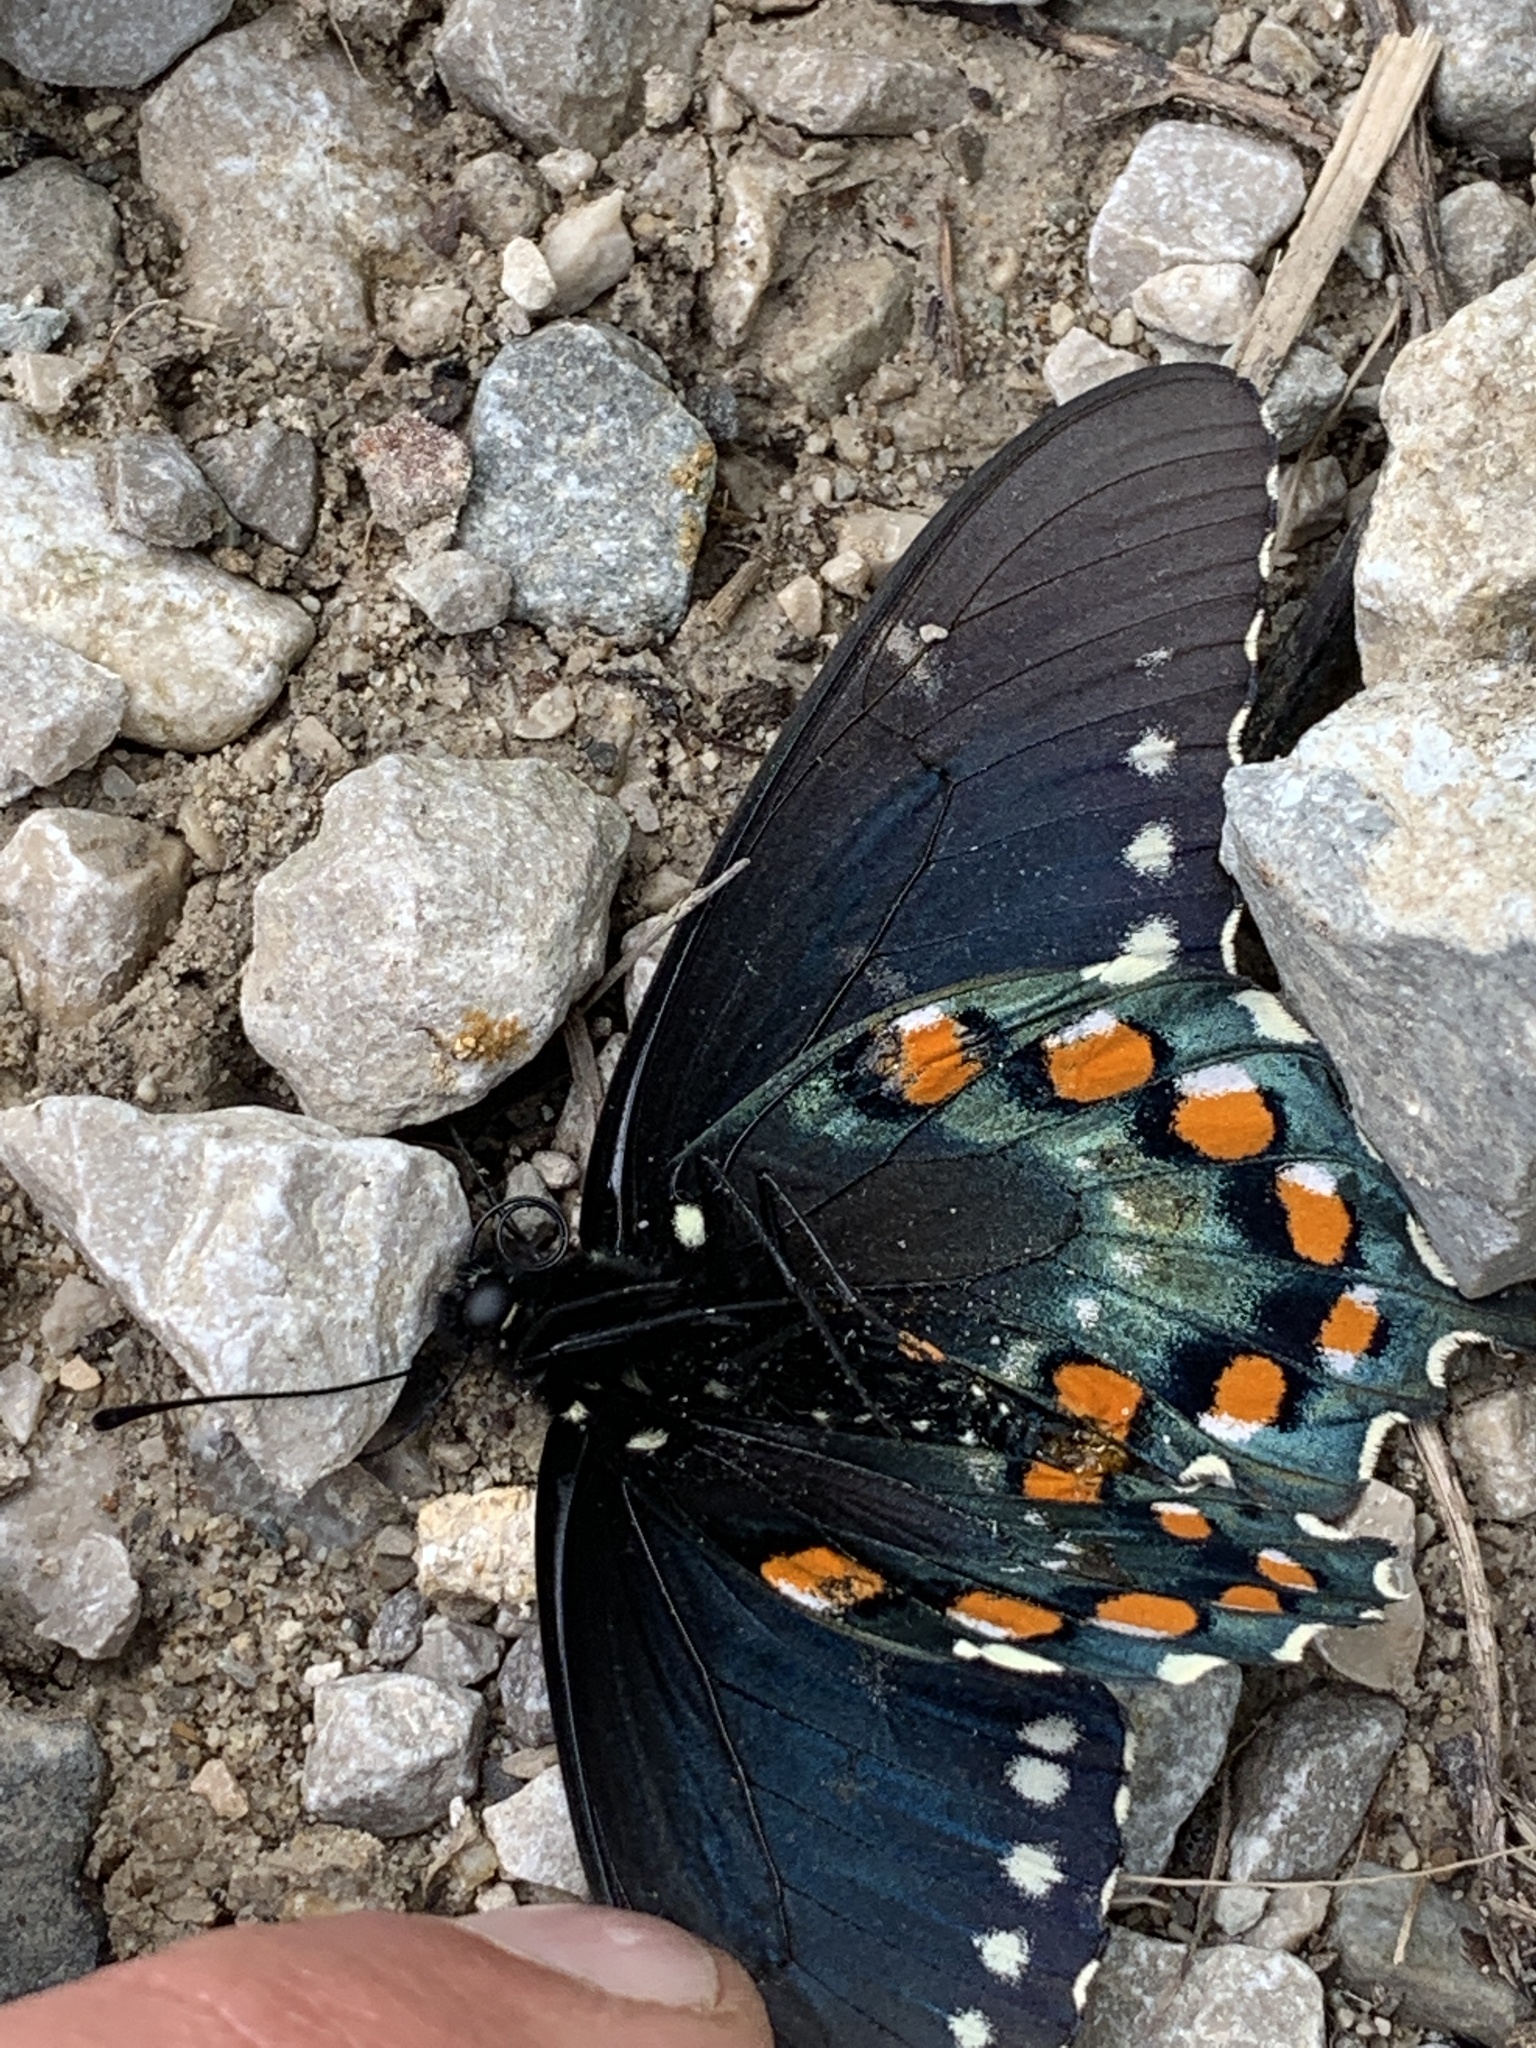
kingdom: Animalia
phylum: Arthropoda
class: Insecta
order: Lepidoptera
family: Papilionidae
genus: Battus
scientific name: Battus philenor
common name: Pipevine swallowtail
